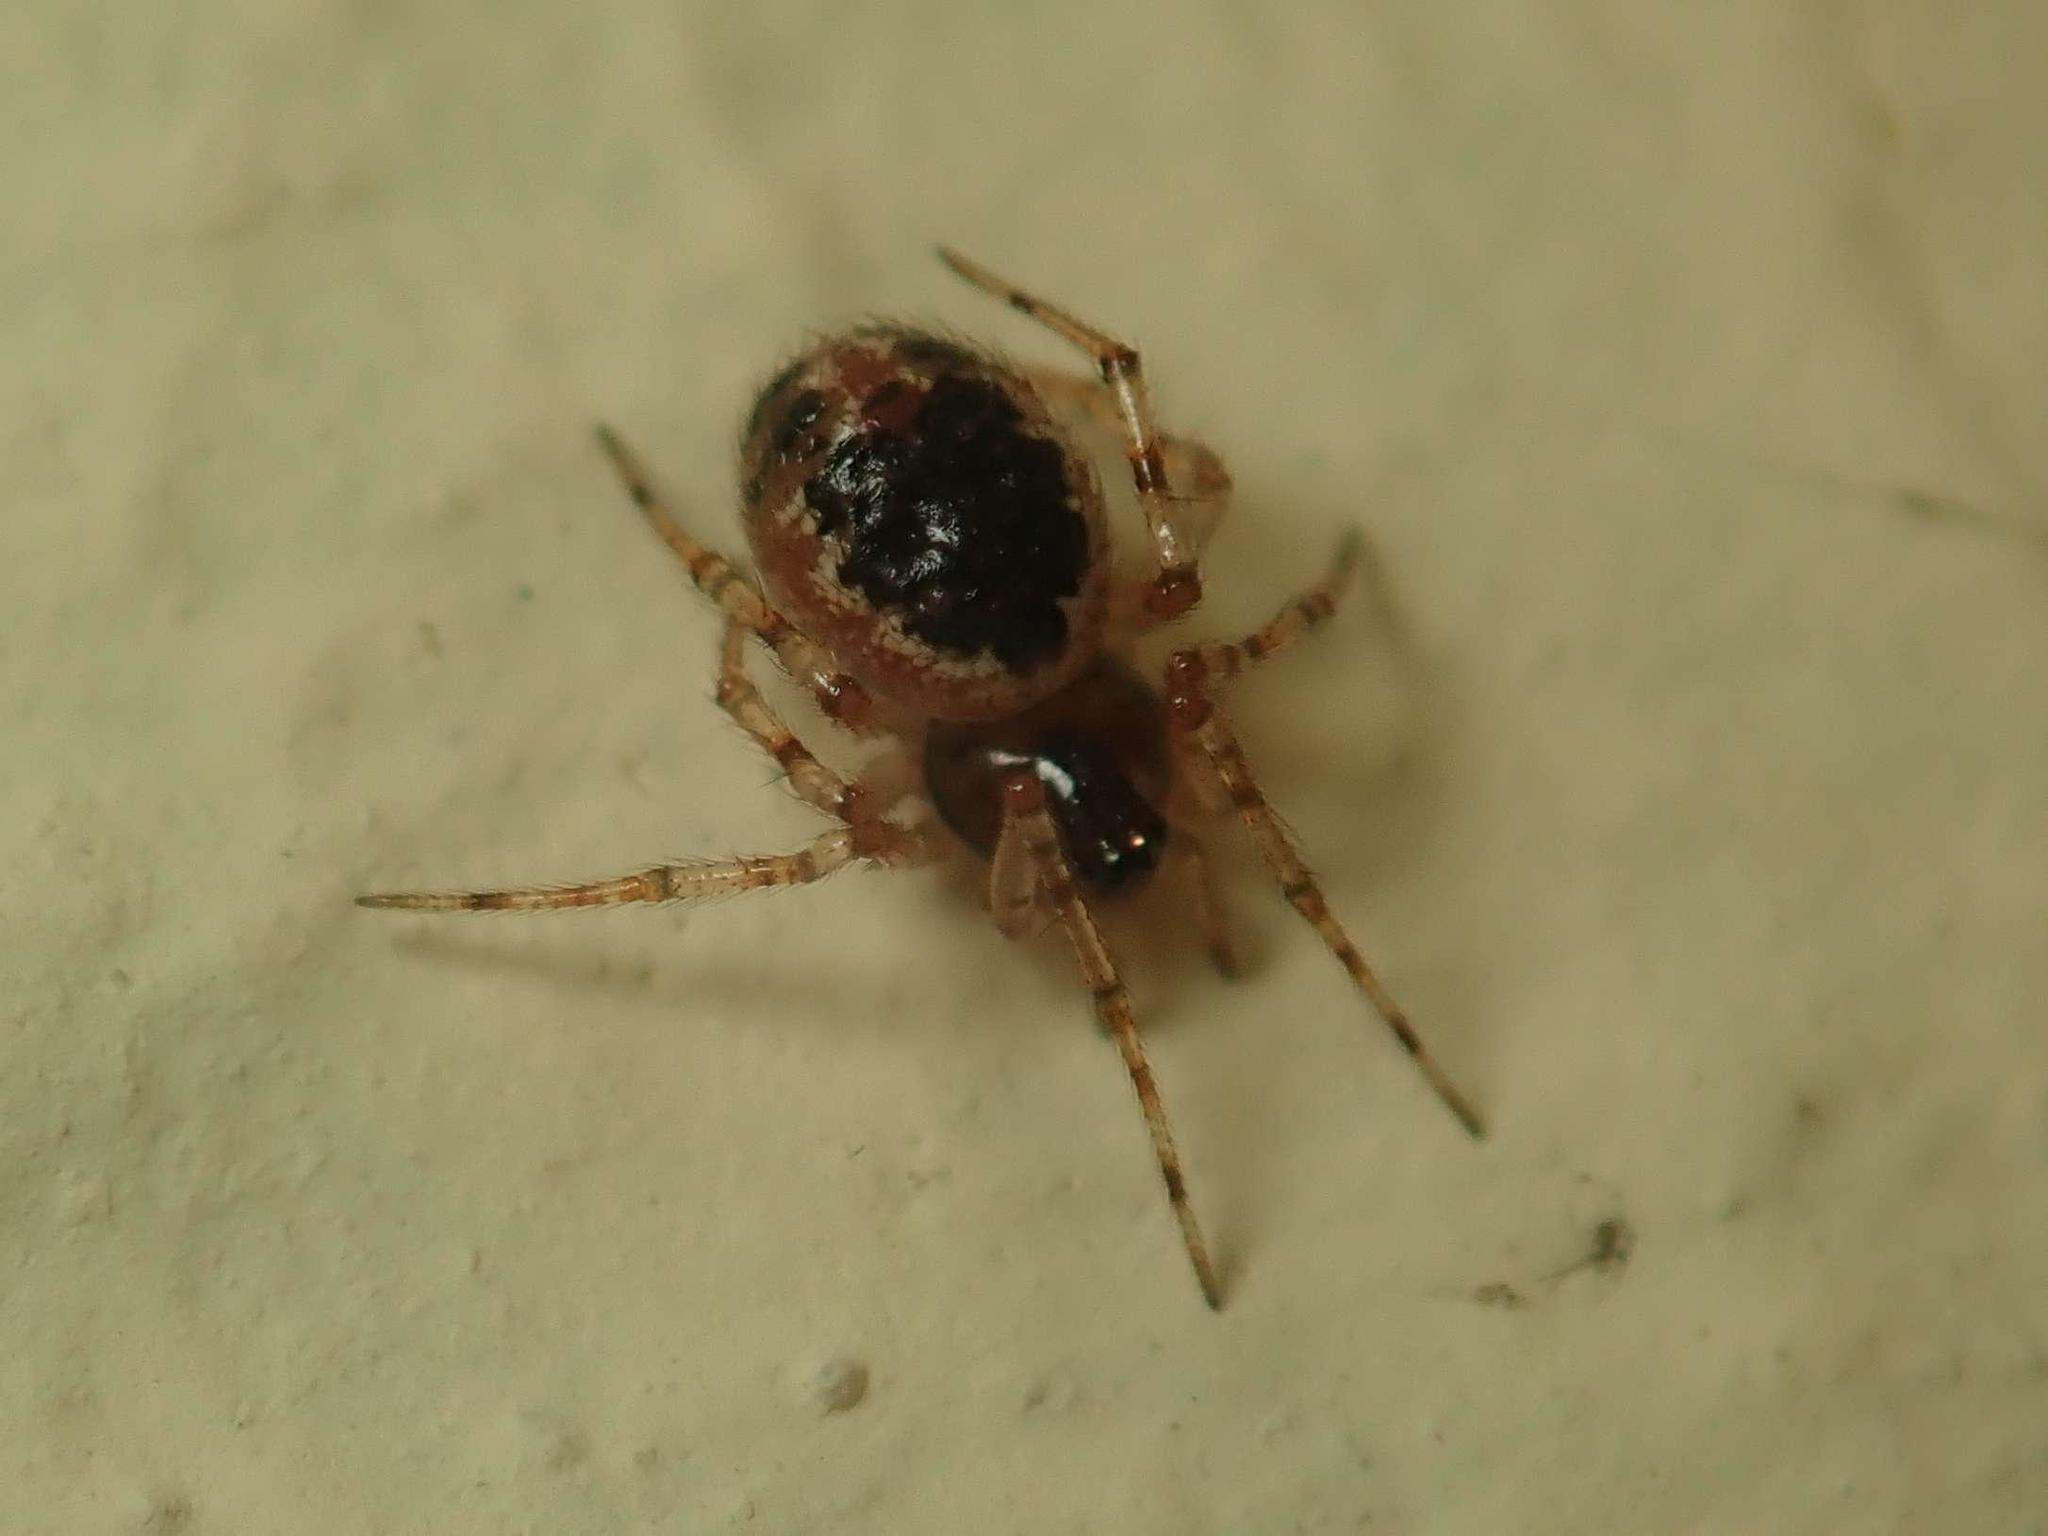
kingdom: Animalia
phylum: Arthropoda
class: Arachnida
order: Araneae
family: Theridiidae
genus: Sardinidion
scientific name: Sardinidion blackwalli
